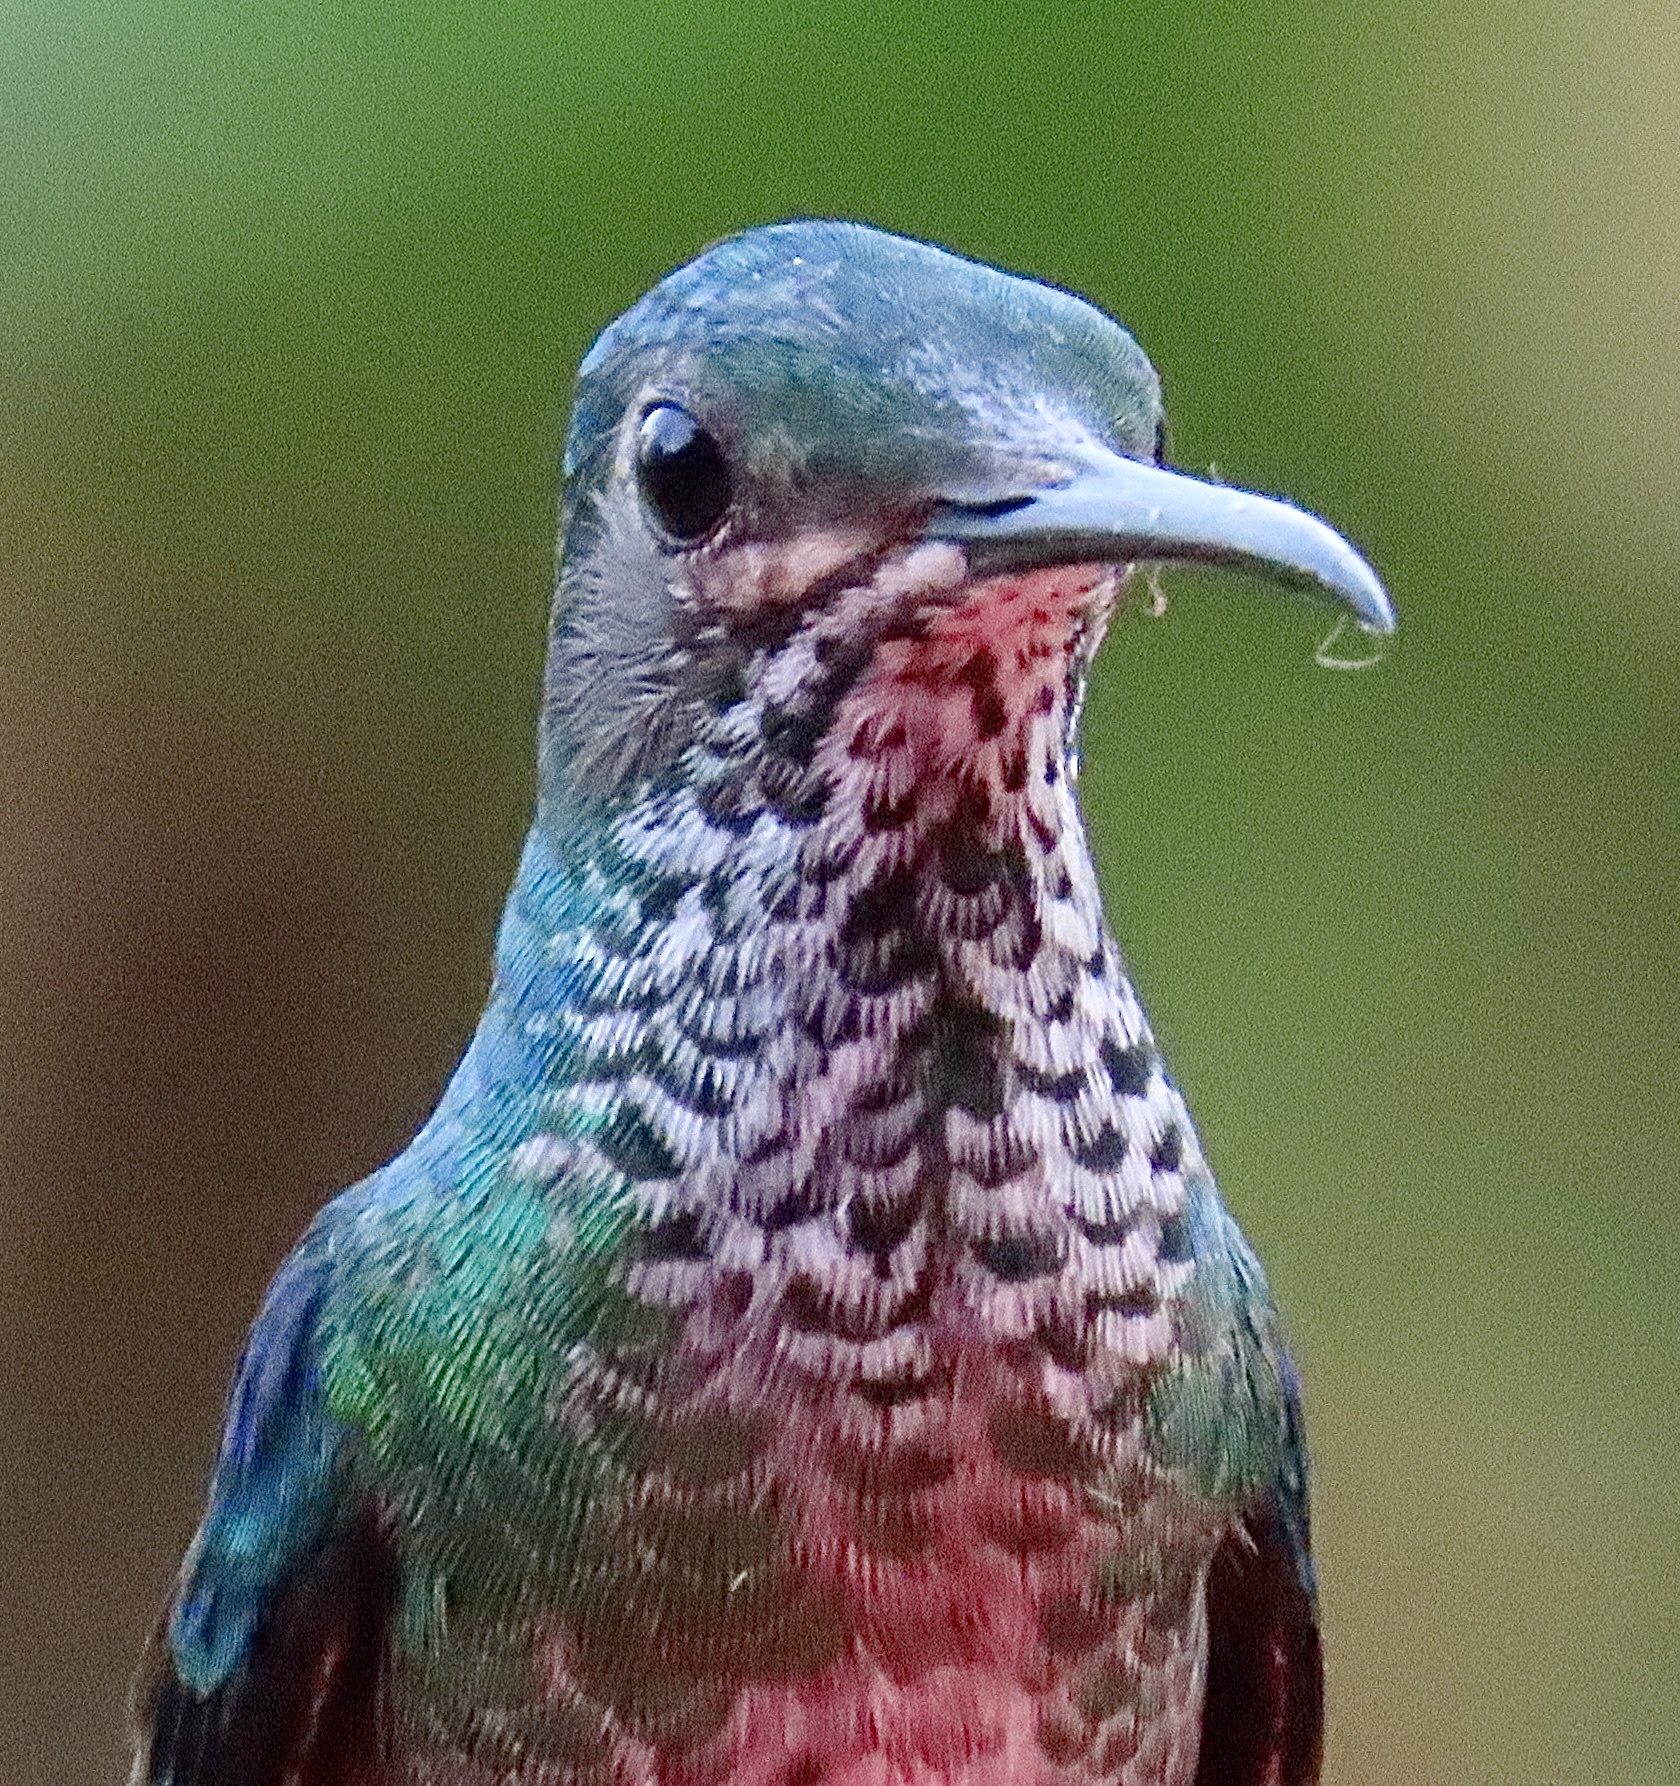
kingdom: Animalia
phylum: Chordata
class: Aves
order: Apodiformes
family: Trochilidae
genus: Florisuga
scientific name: Florisuga mellivora
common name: White-necked jacobin
